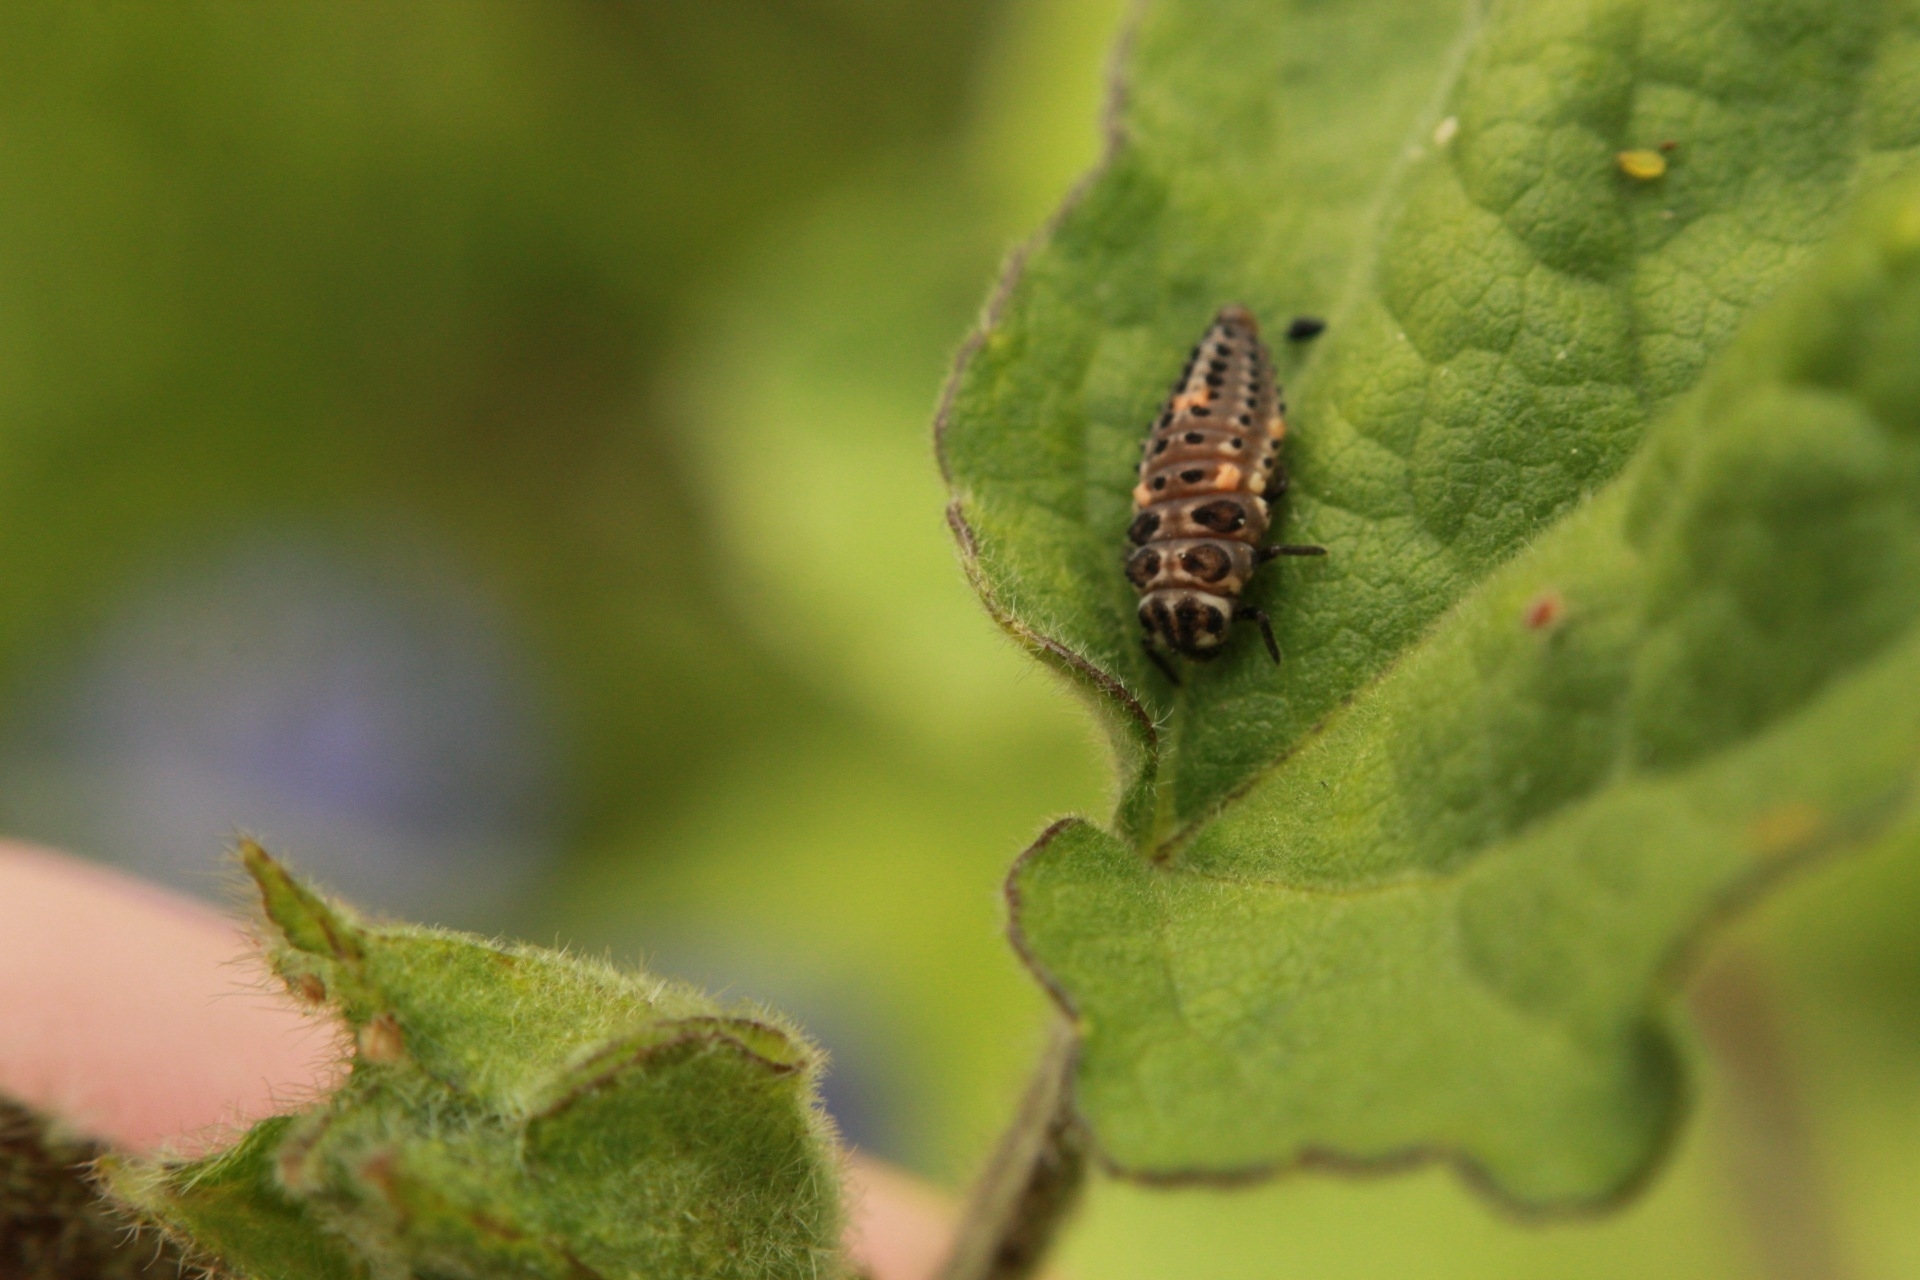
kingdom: Animalia
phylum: Arthropoda
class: Insecta
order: Coleoptera
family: Coccinellidae
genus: Coccinella
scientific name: Coccinella septempunctata
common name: Sevenspotted lady beetle
